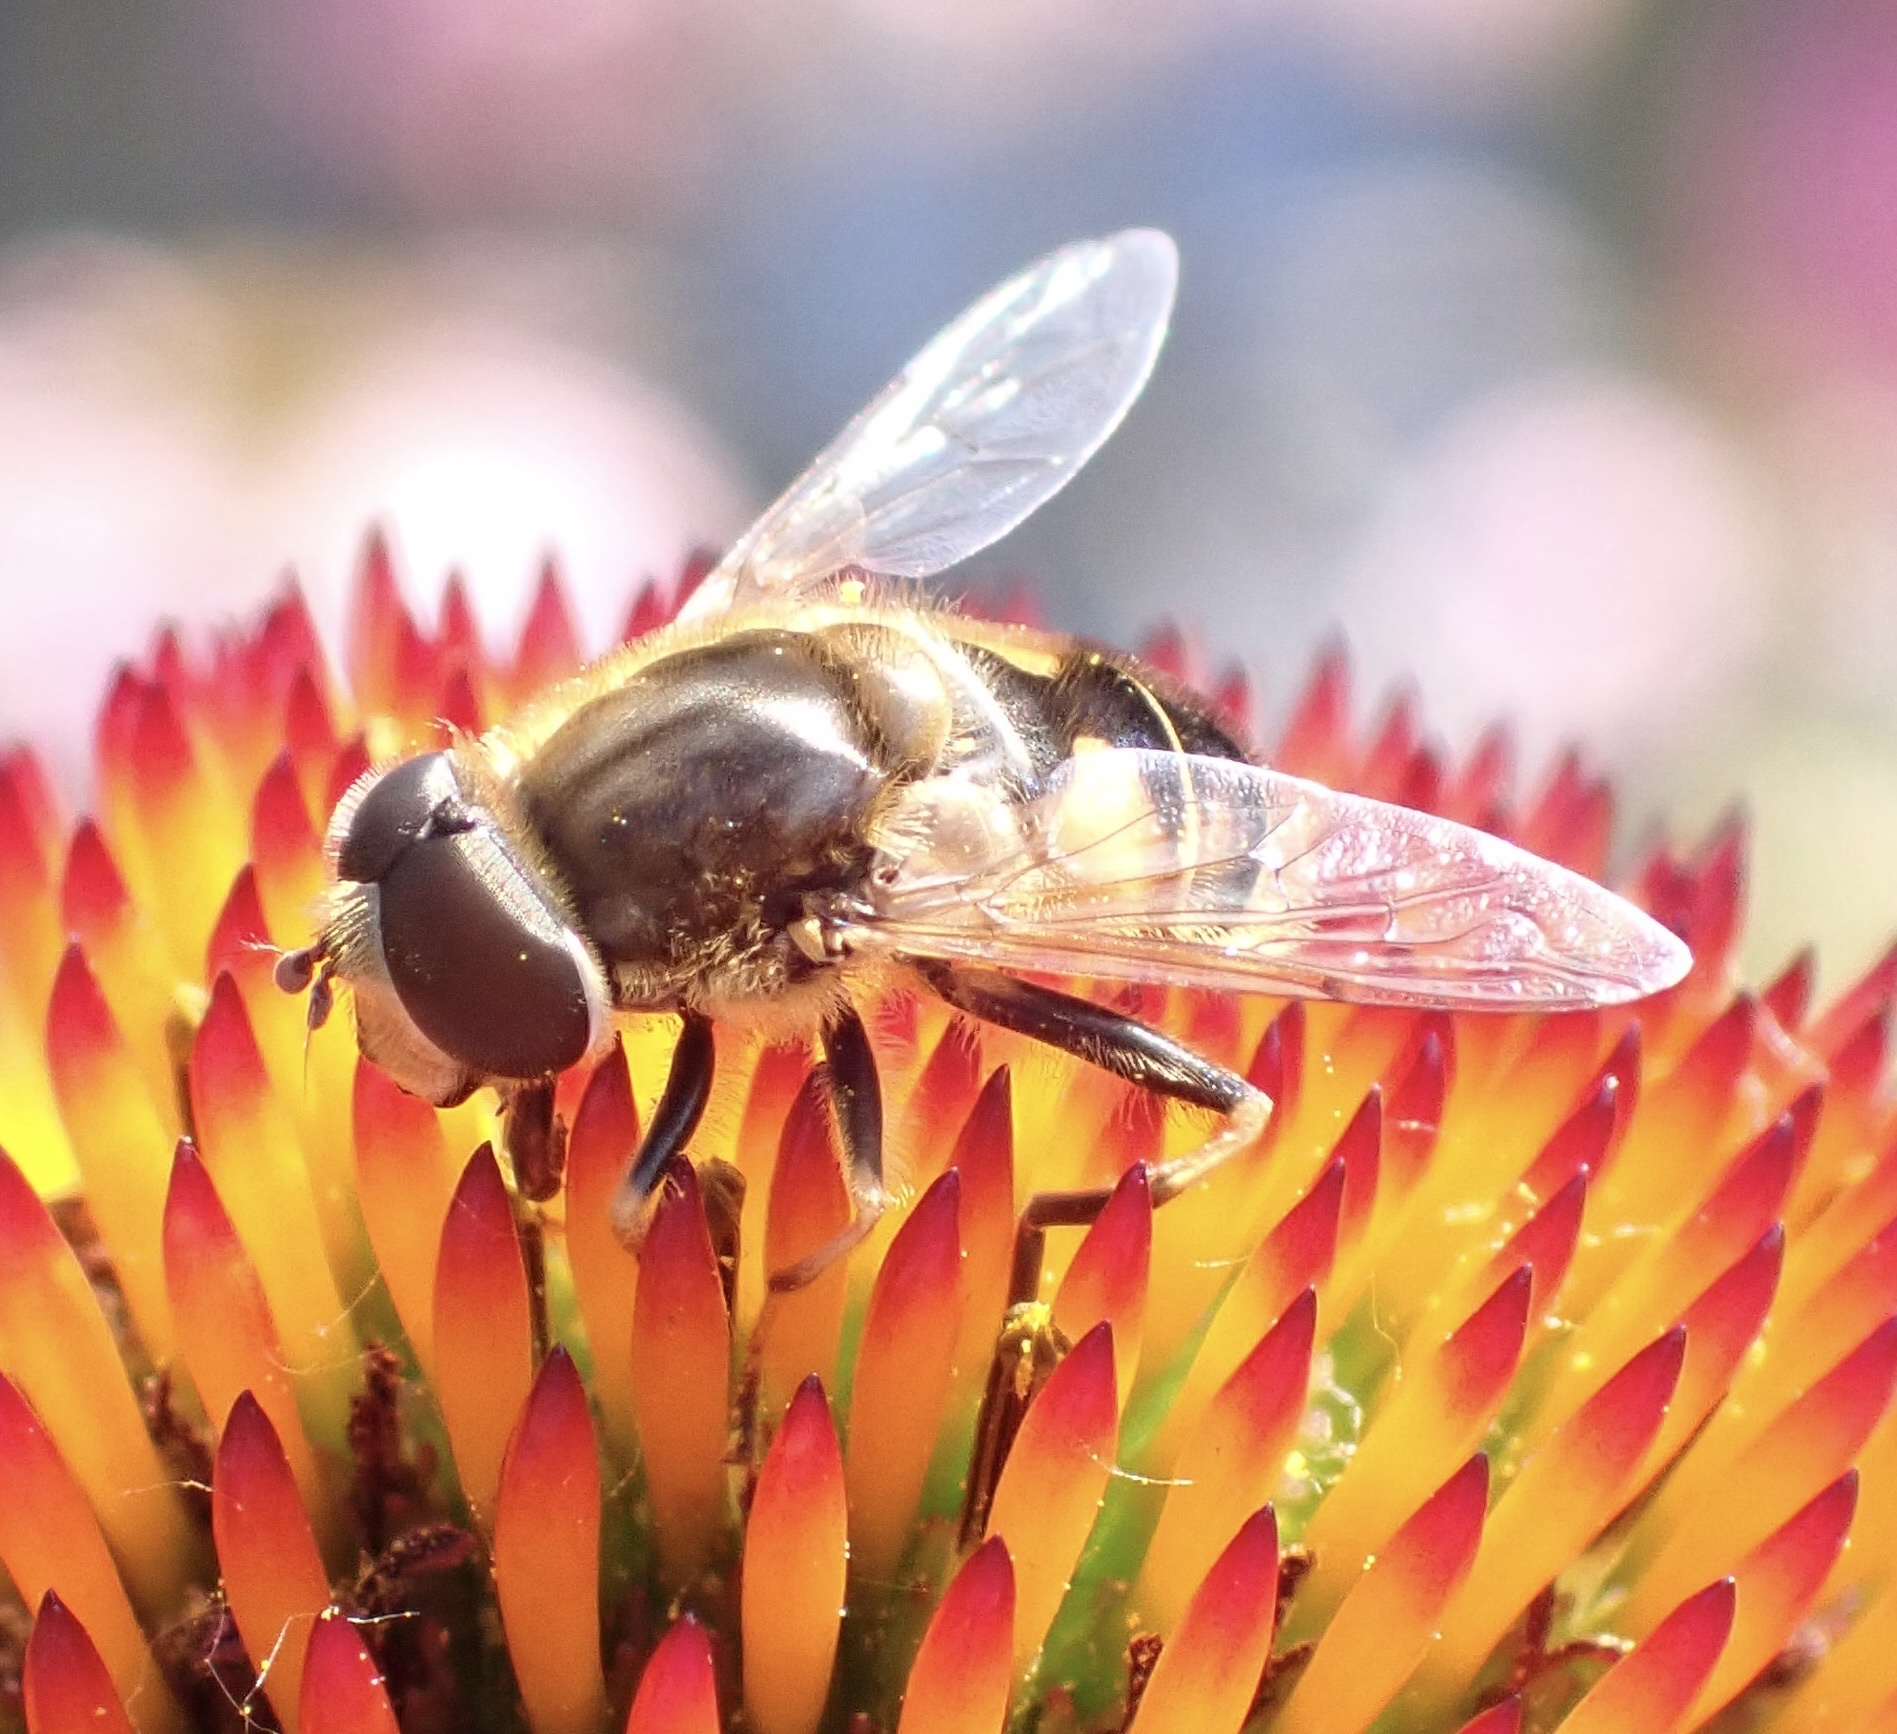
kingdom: Animalia
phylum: Arthropoda
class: Insecta
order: Diptera
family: Syrphidae
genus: Eristalis
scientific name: Eristalis nemorum
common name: Orange-spined drone fly
